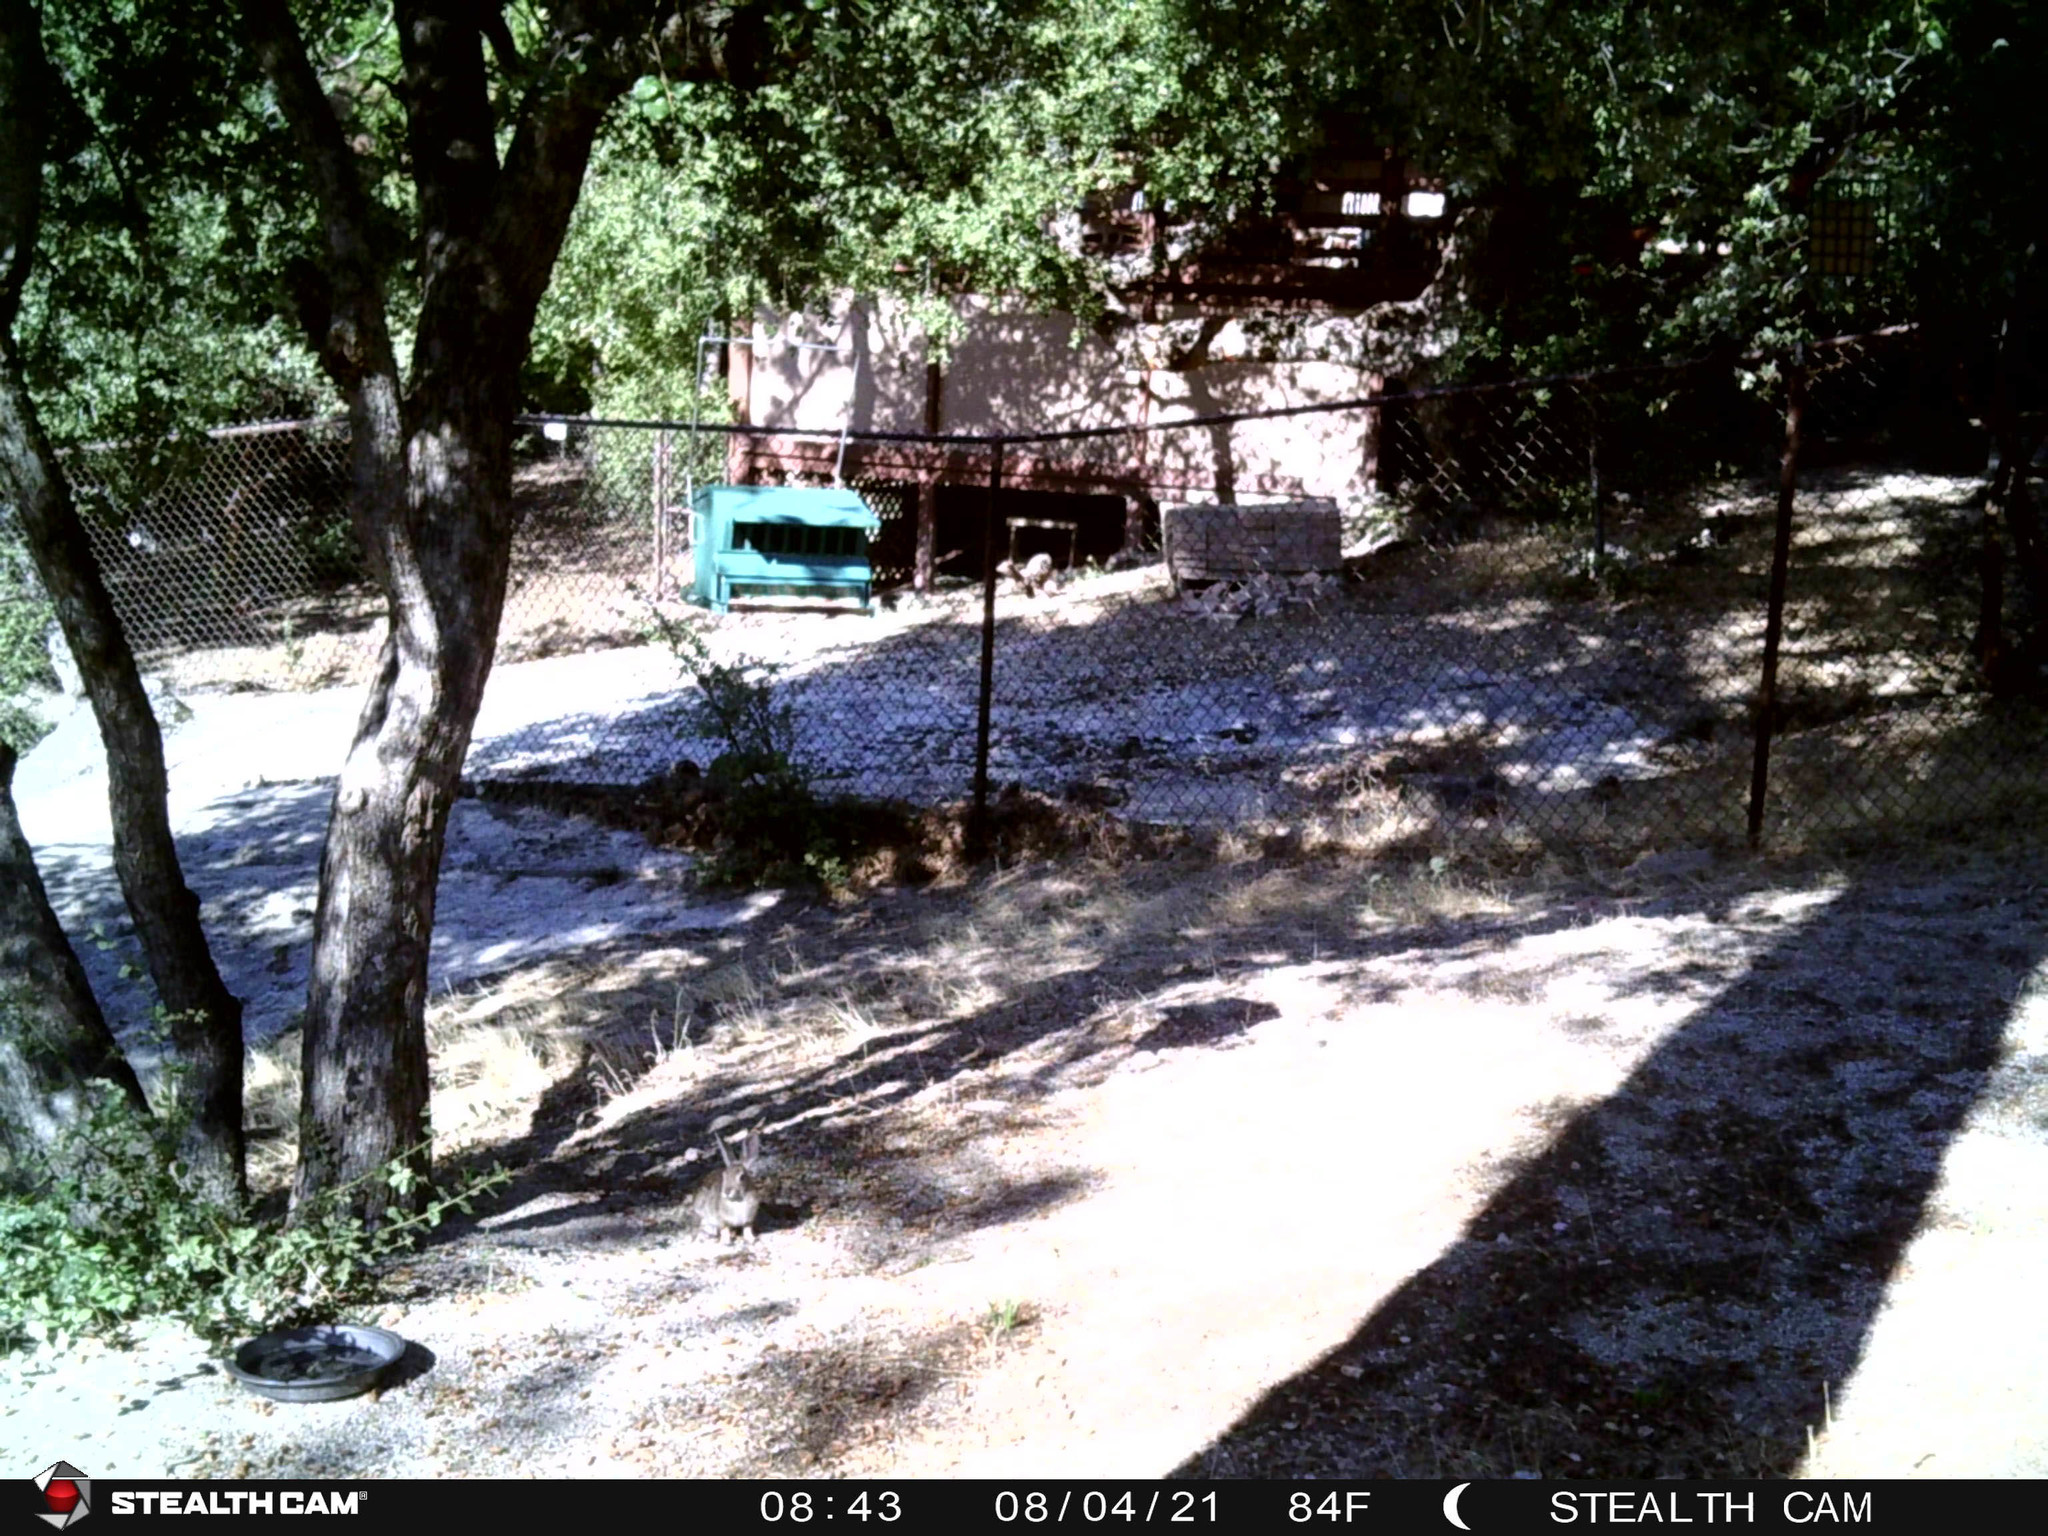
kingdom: Animalia
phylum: Chordata
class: Mammalia
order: Lagomorpha
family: Leporidae
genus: Sylvilagus
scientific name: Sylvilagus audubonii
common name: Desert cottontail
